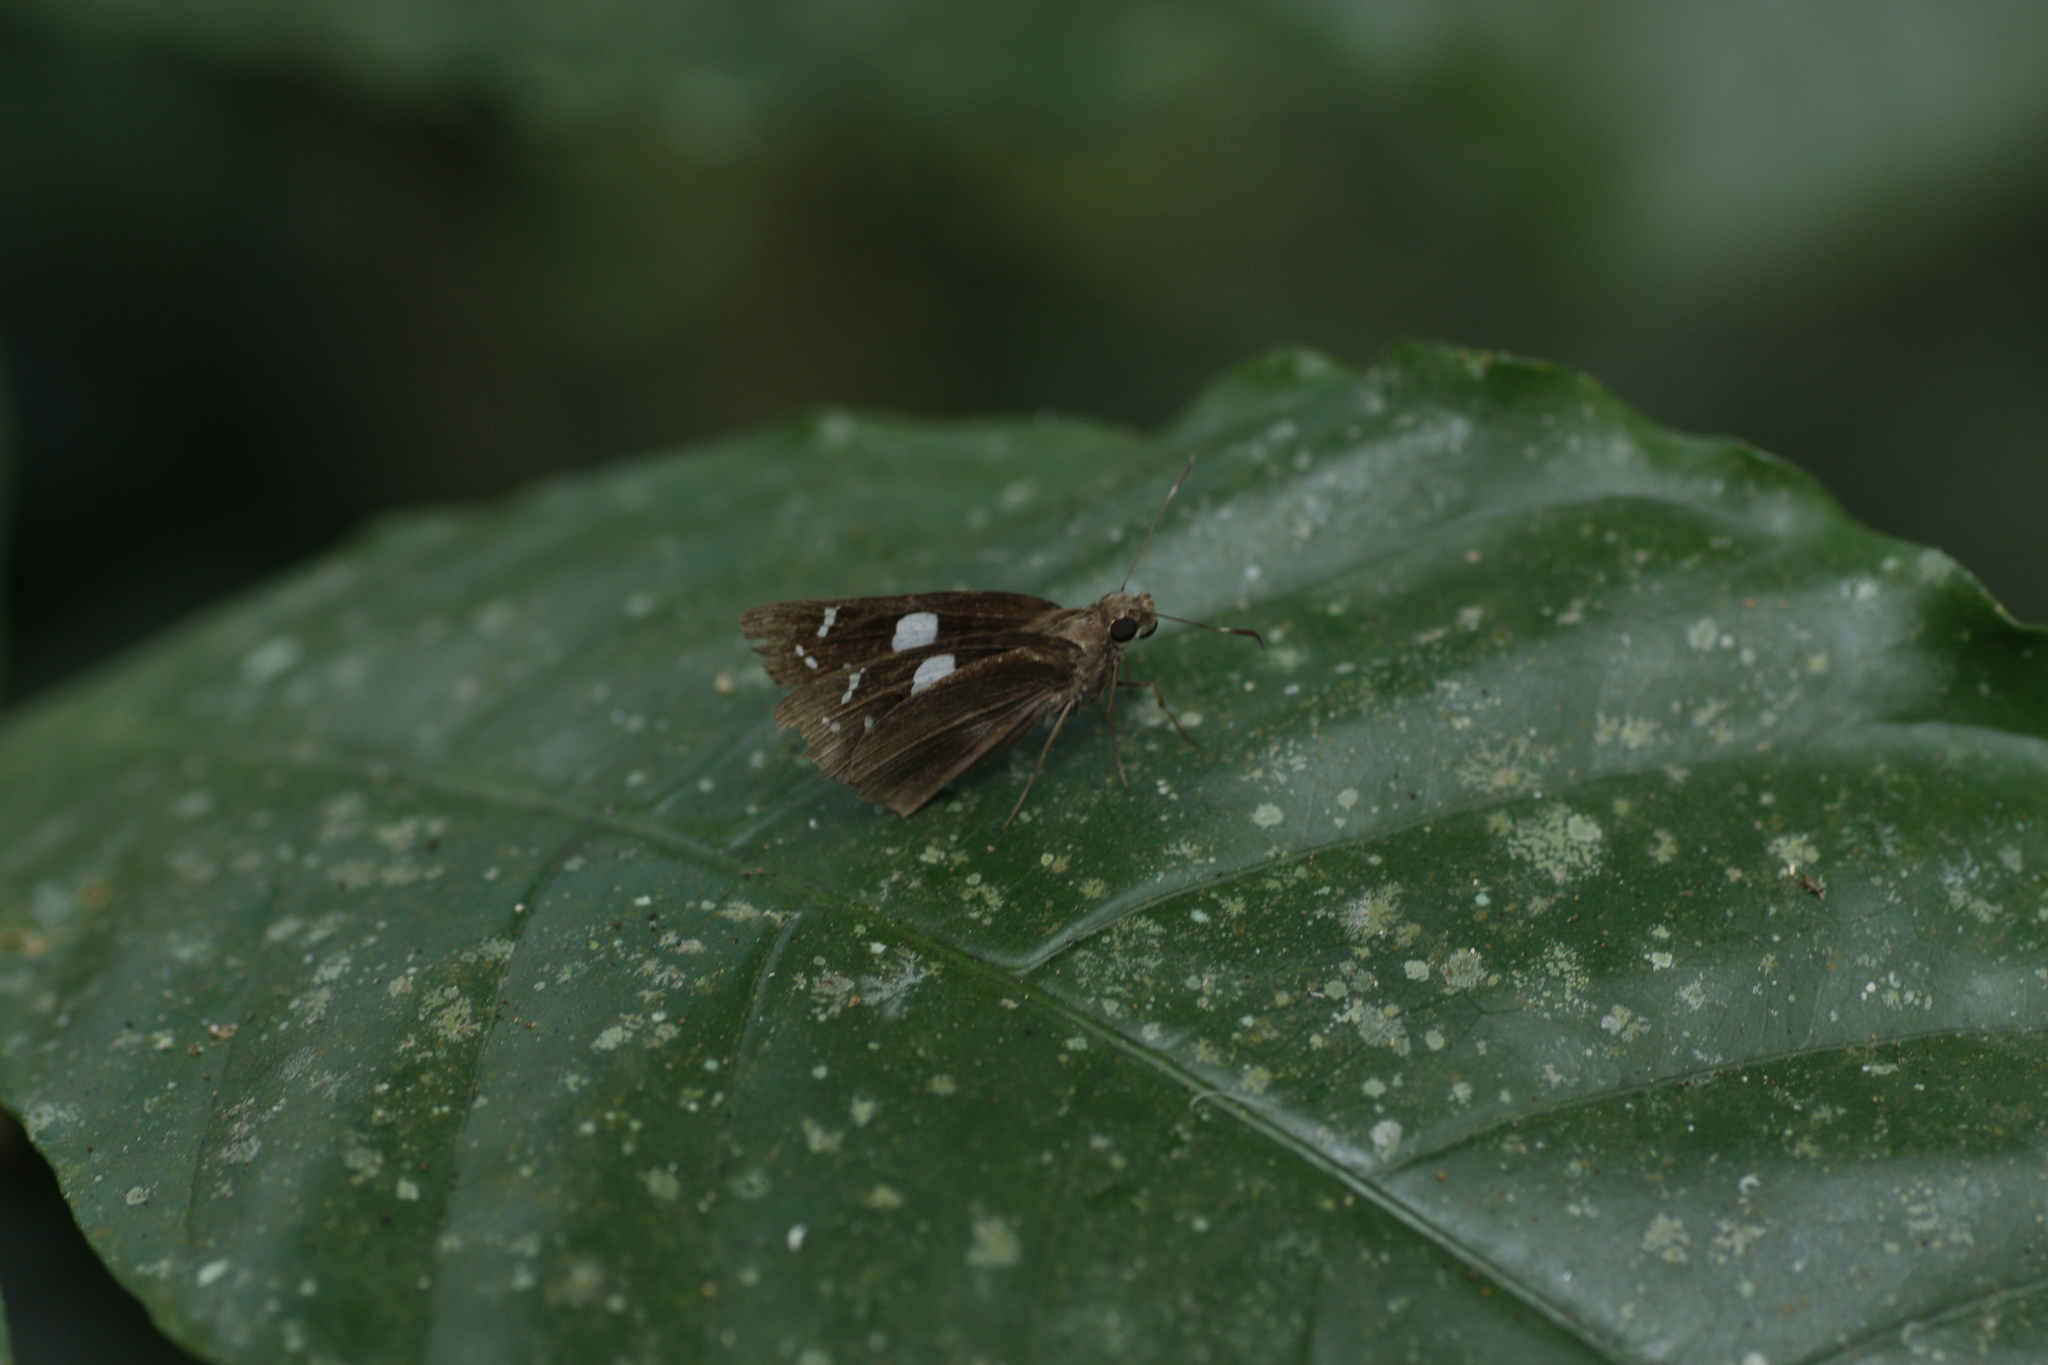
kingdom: Animalia
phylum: Arthropoda
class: Insecta
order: Lepidoptera
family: Hesperiidae
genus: Notocrypta
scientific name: Notocrypta curvifascia
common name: Restricted demon
